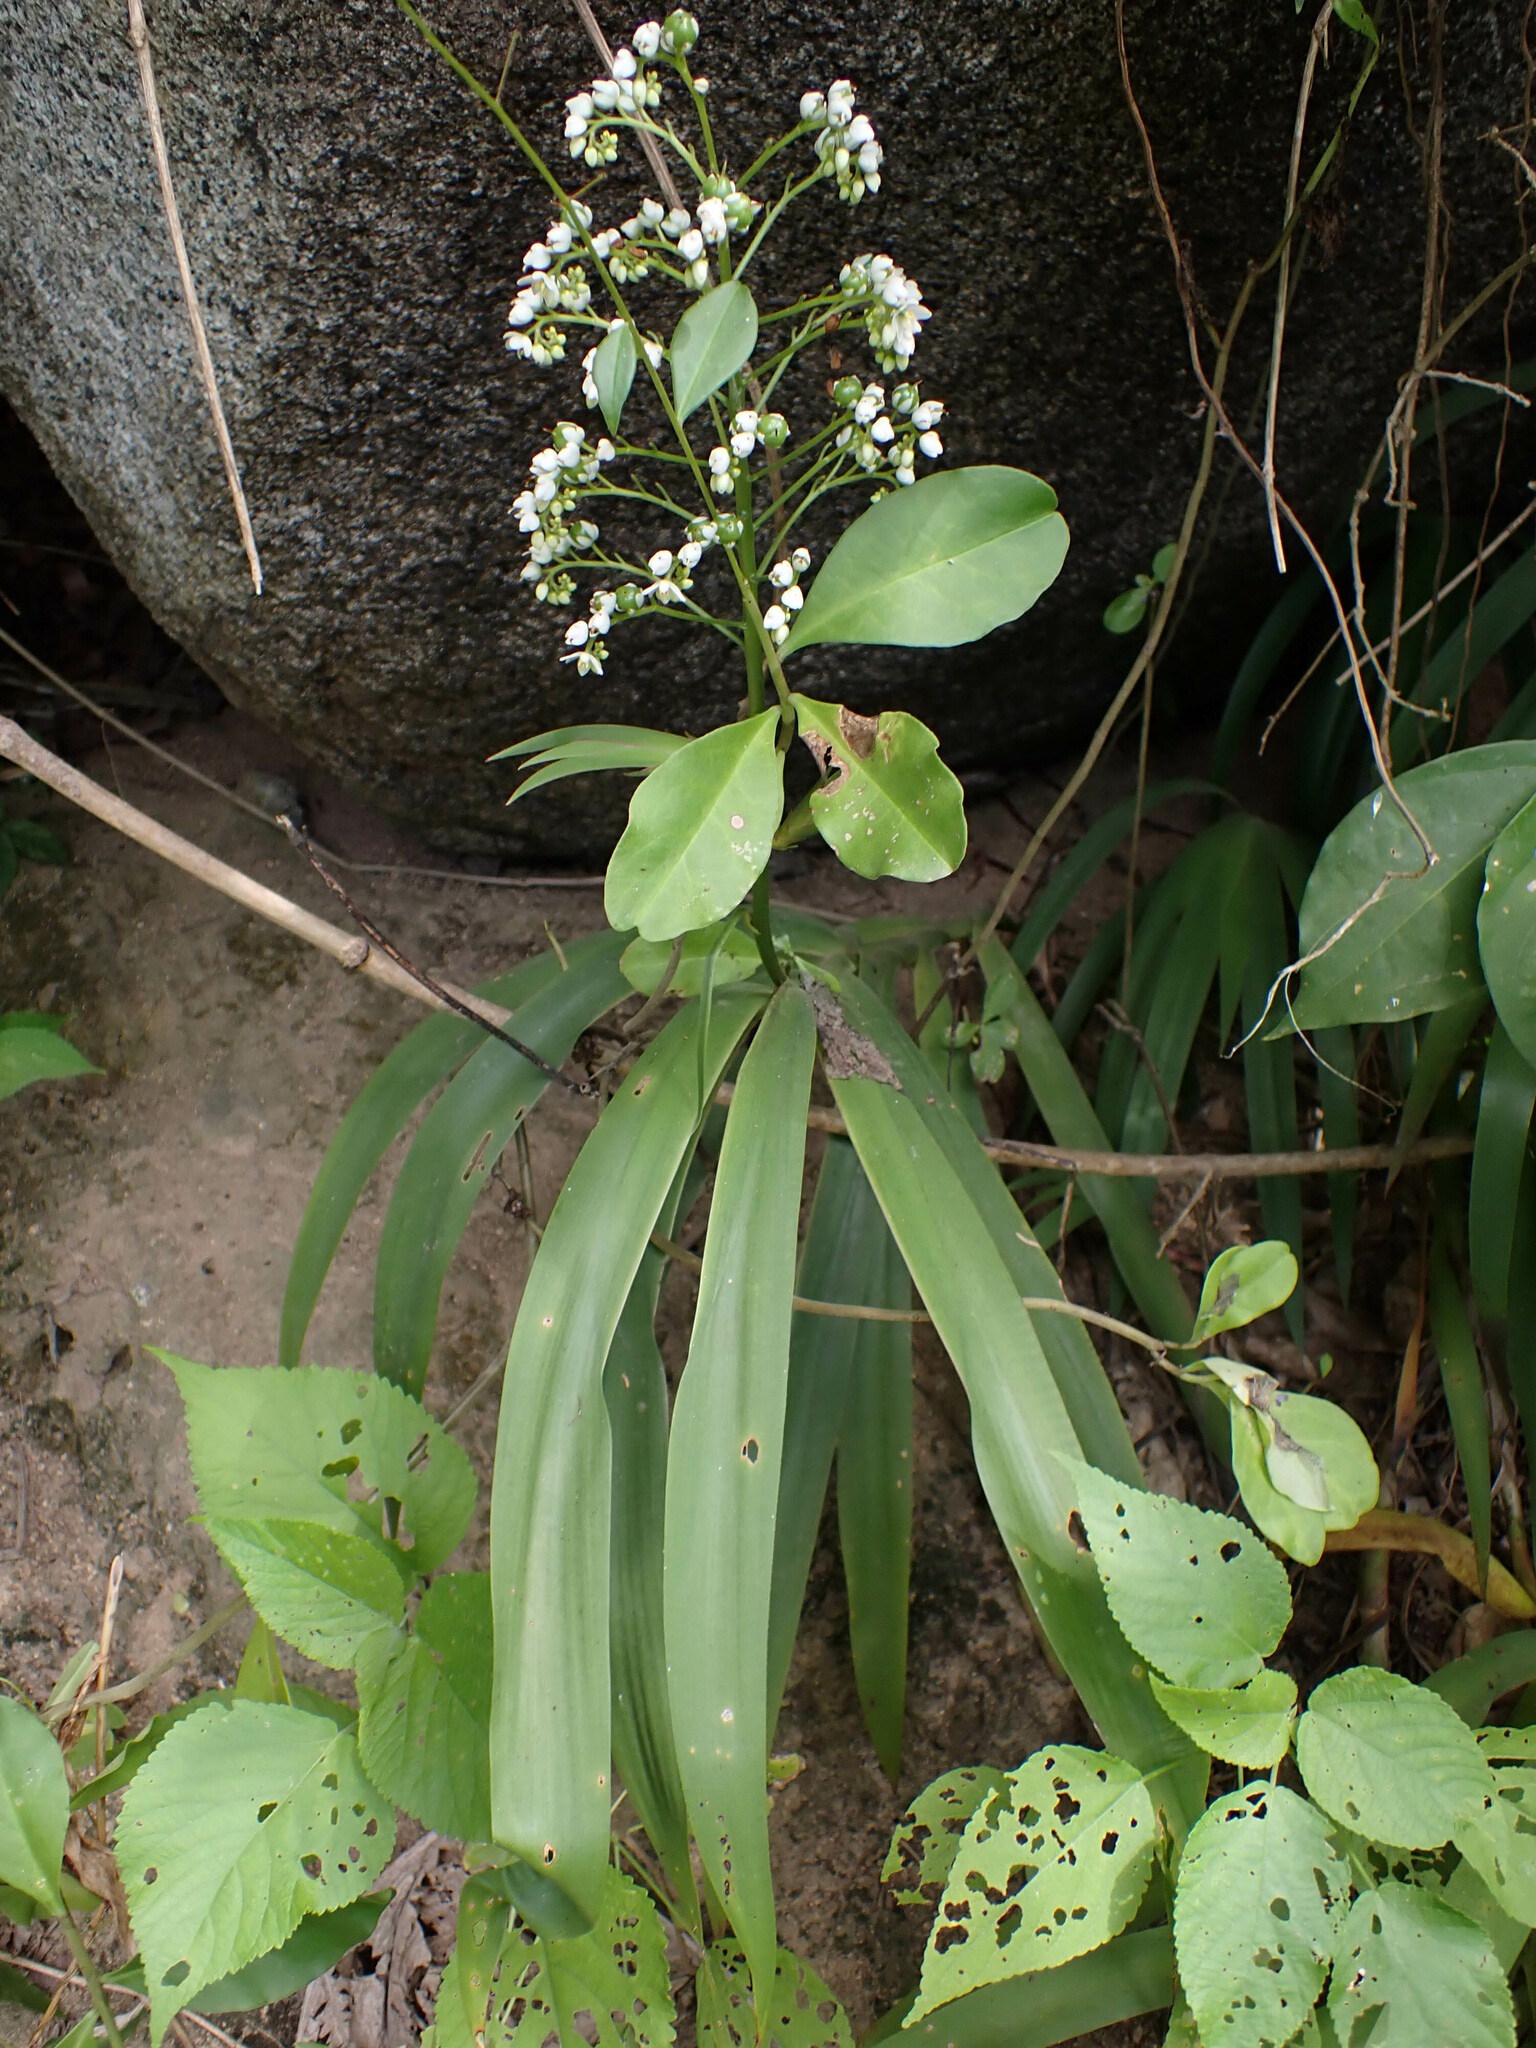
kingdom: Plantae
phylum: Tracheophyta
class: Liliopsida
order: Commelinales
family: Haemodoraceae
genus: Xiphidium
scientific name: Xiphidium caeruleum
